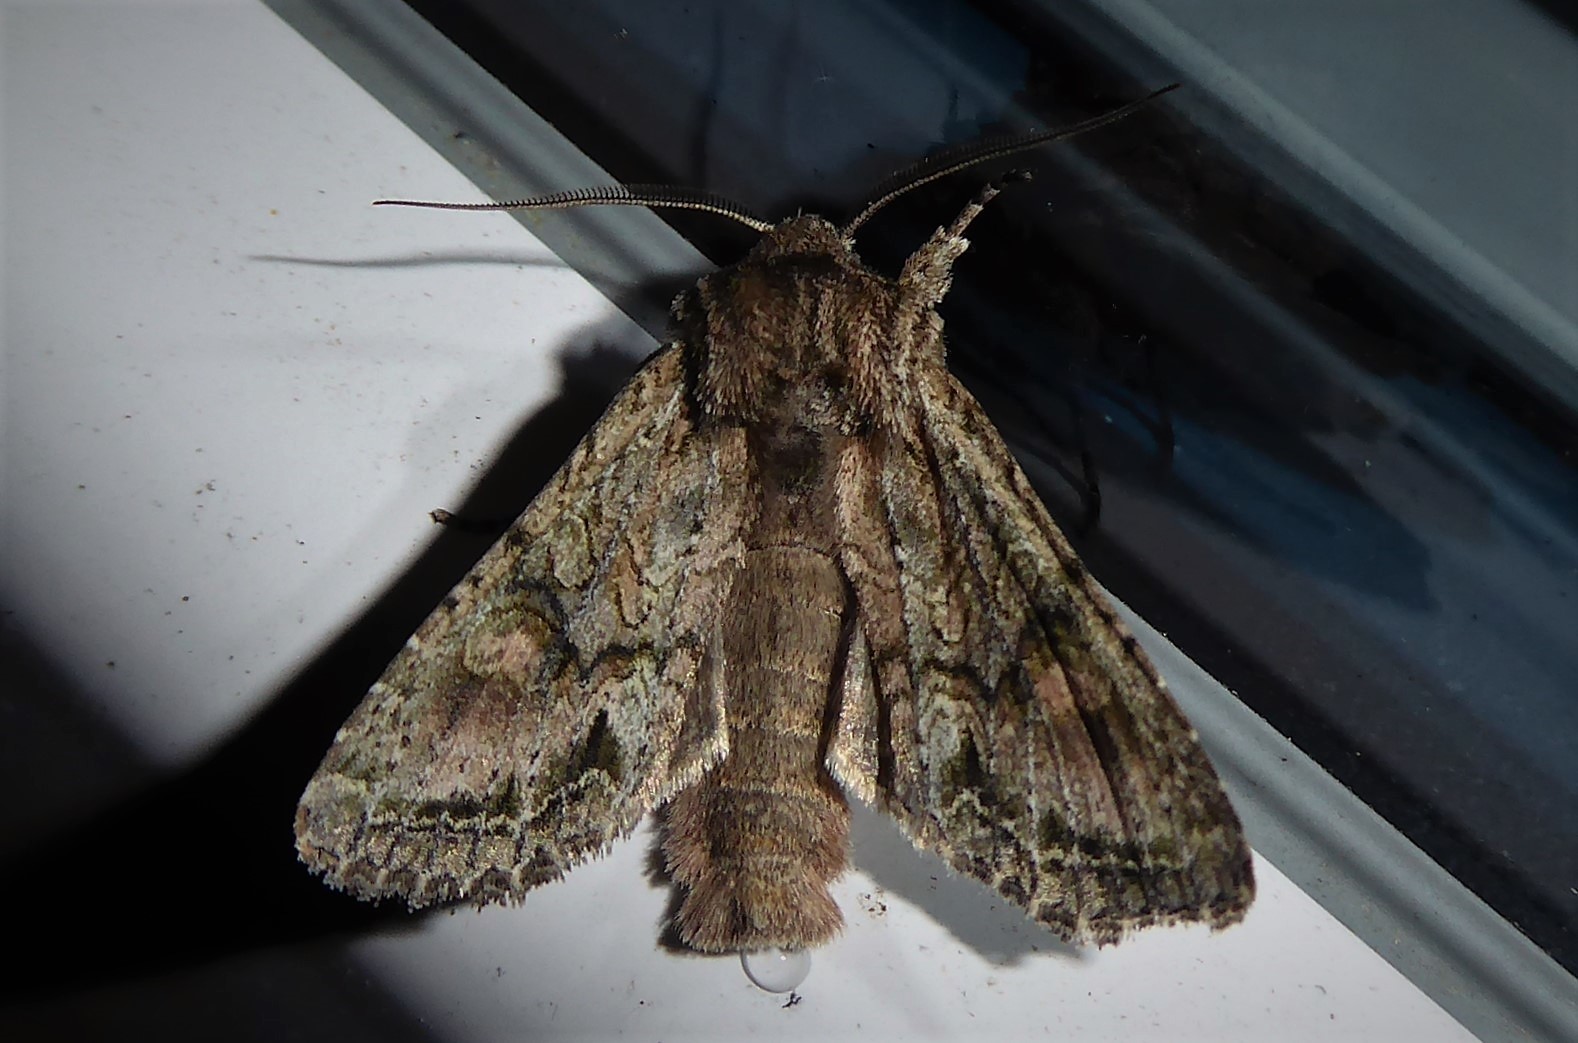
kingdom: Animalia
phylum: Arthropoda
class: Insecta
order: Lepidoptera
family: Noctuidae
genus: Ichneutica
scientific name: Ichneutica mutans
